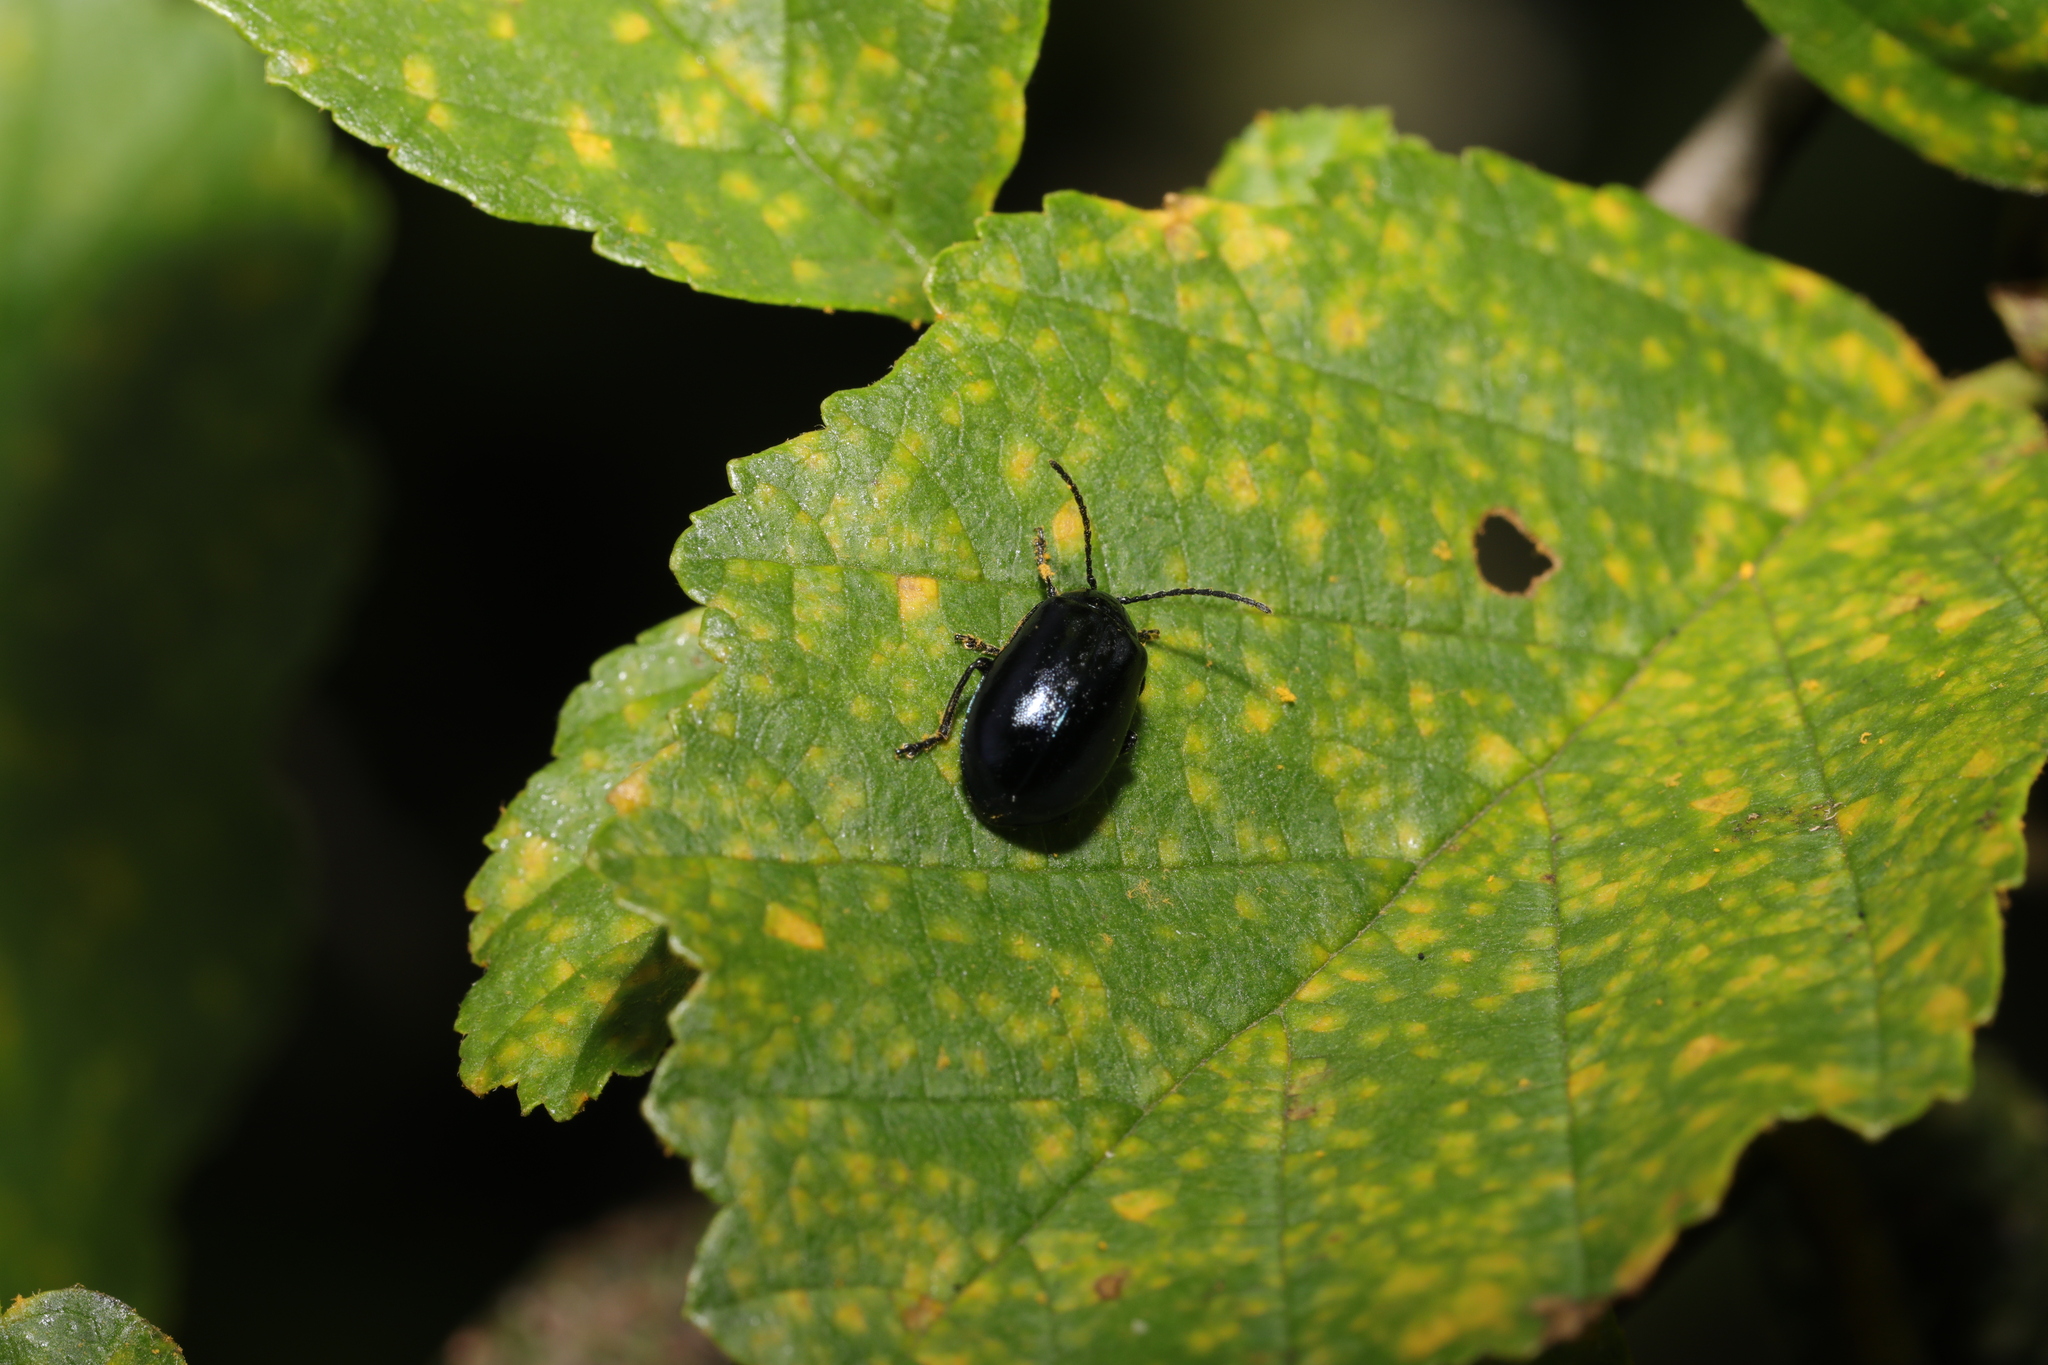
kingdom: Animalia
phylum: Arthropoda
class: Insecta
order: Coleoptera
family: Chrysomelidae
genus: Agelastica
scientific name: Agelastica alni
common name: Alder leaf beetle
